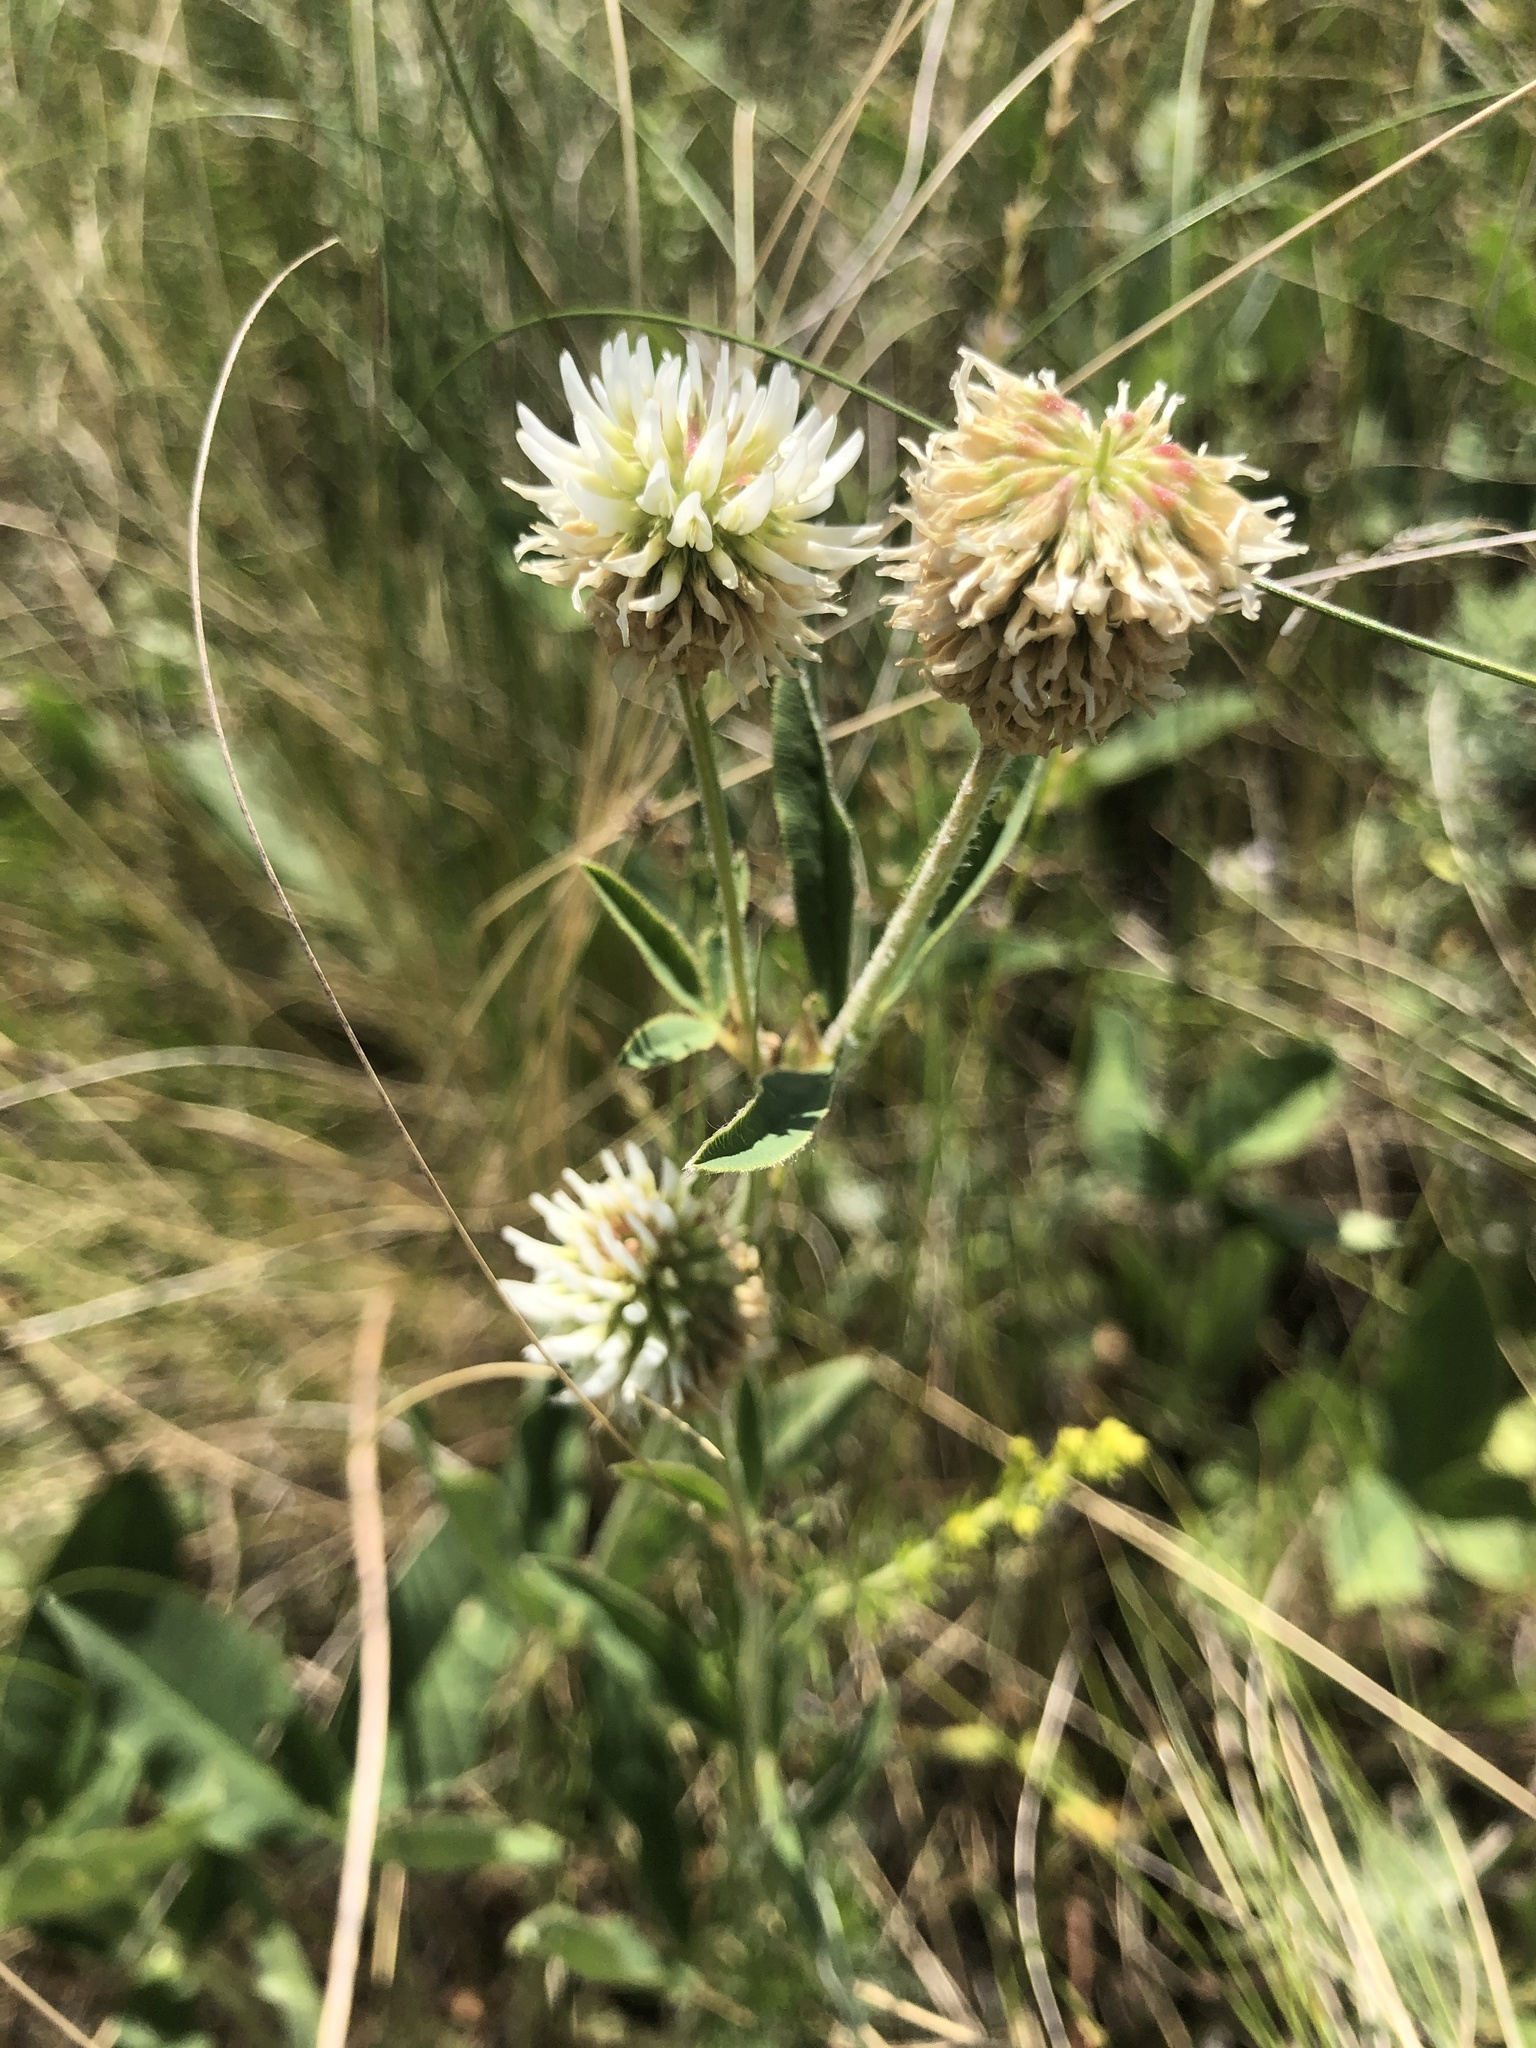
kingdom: Plantae
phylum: Tracheophyta
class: Magnoliopsida
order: Fabales
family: Fabaceae
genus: Trifolium
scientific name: Trifolium montanum
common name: Mountain clover
